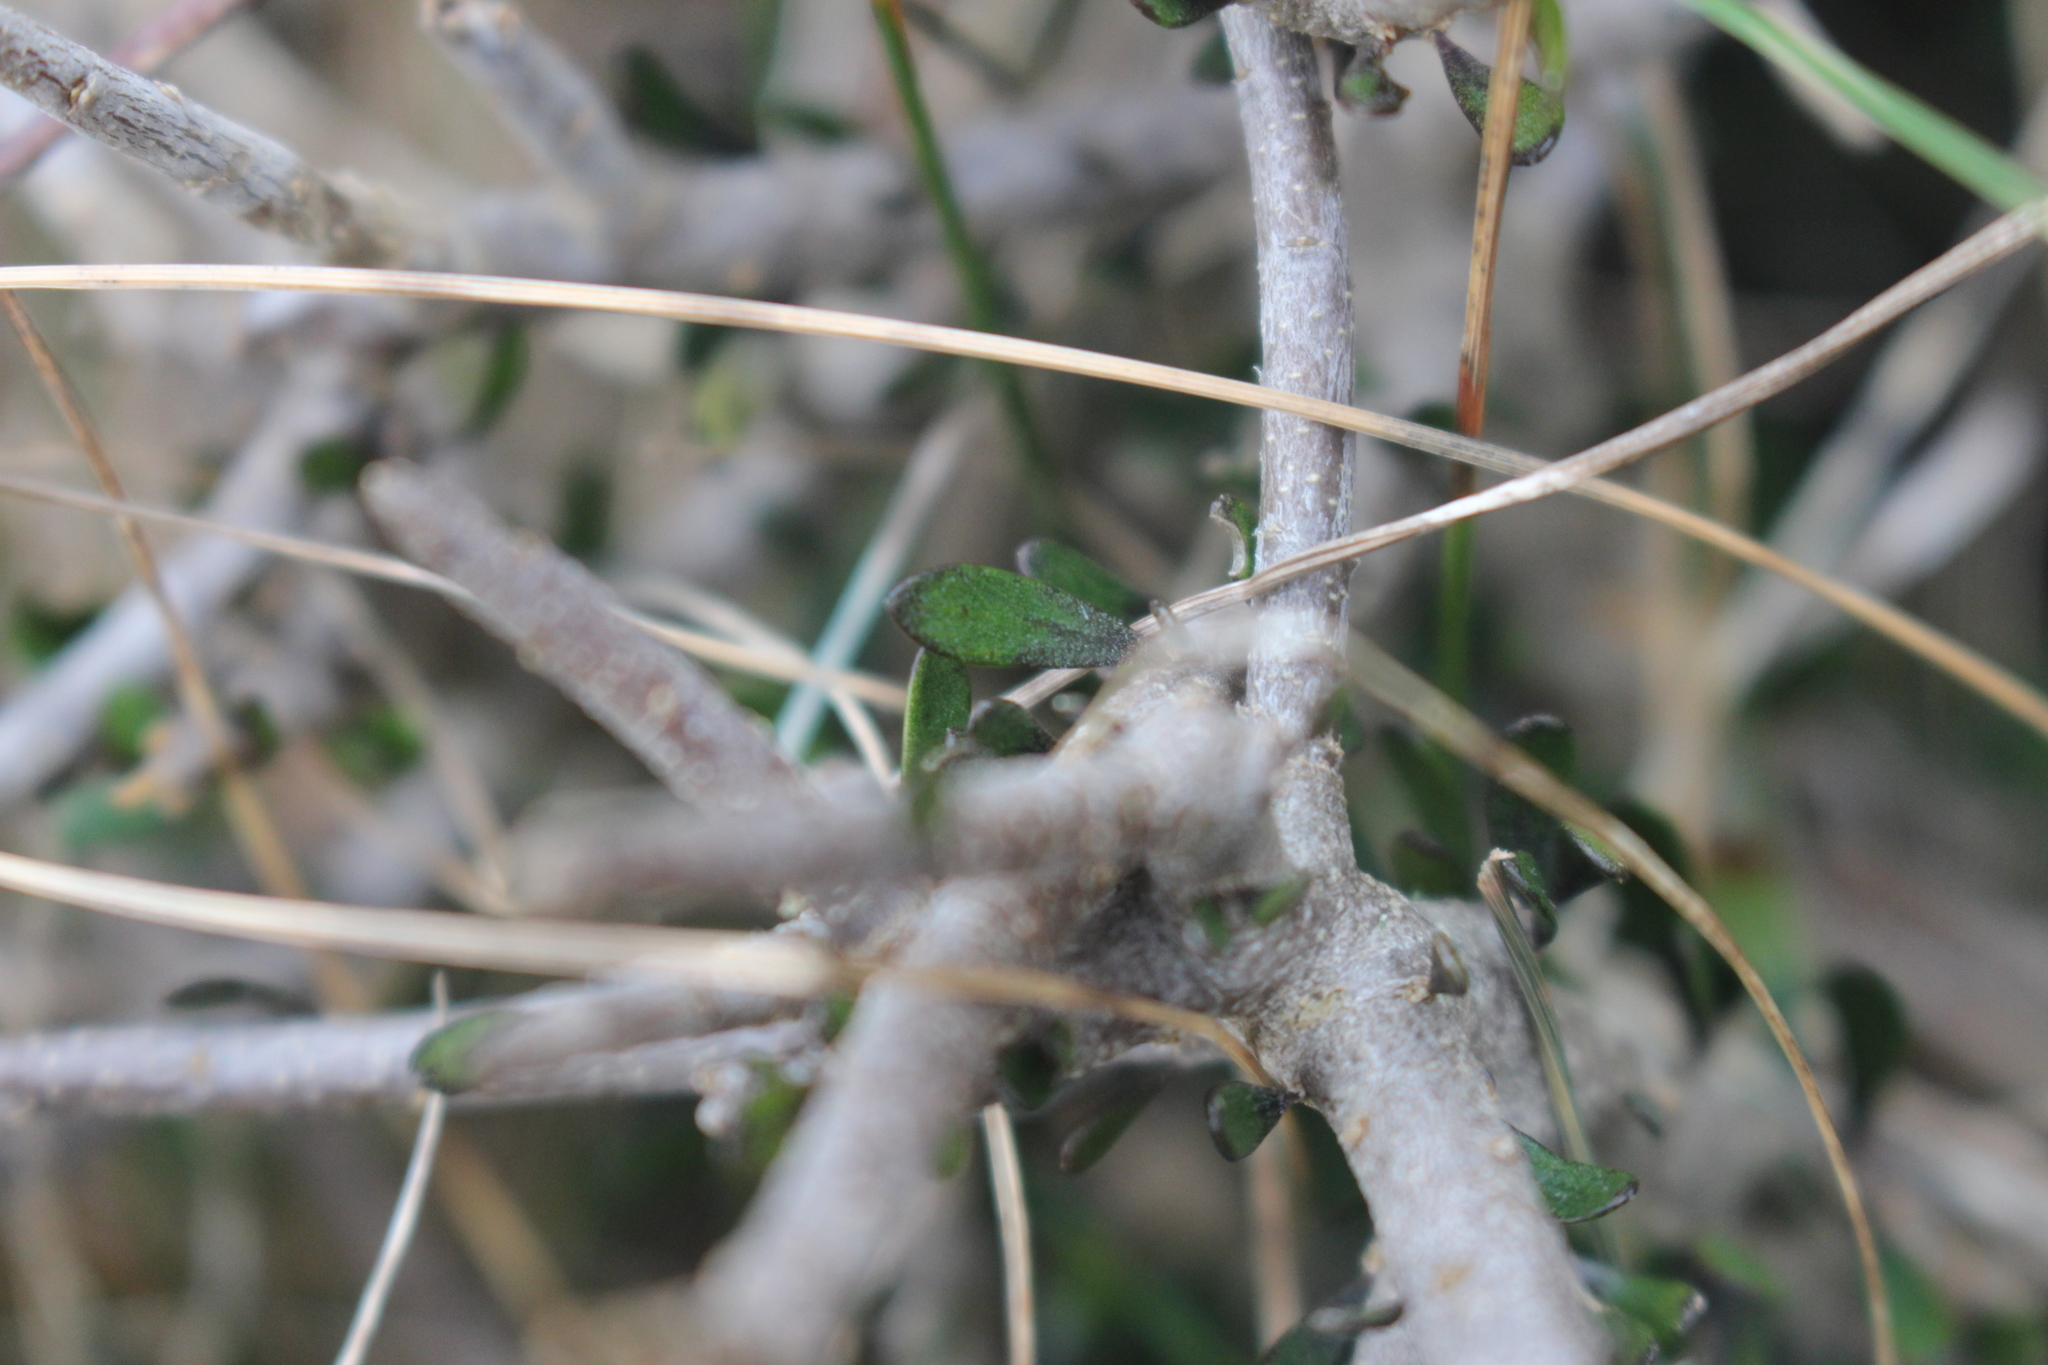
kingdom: Plantae
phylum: Tracheophyta
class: Magnoliopsida
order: Malpighiales
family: Violaceae
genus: Melicytus
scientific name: Melicytus alpinus
